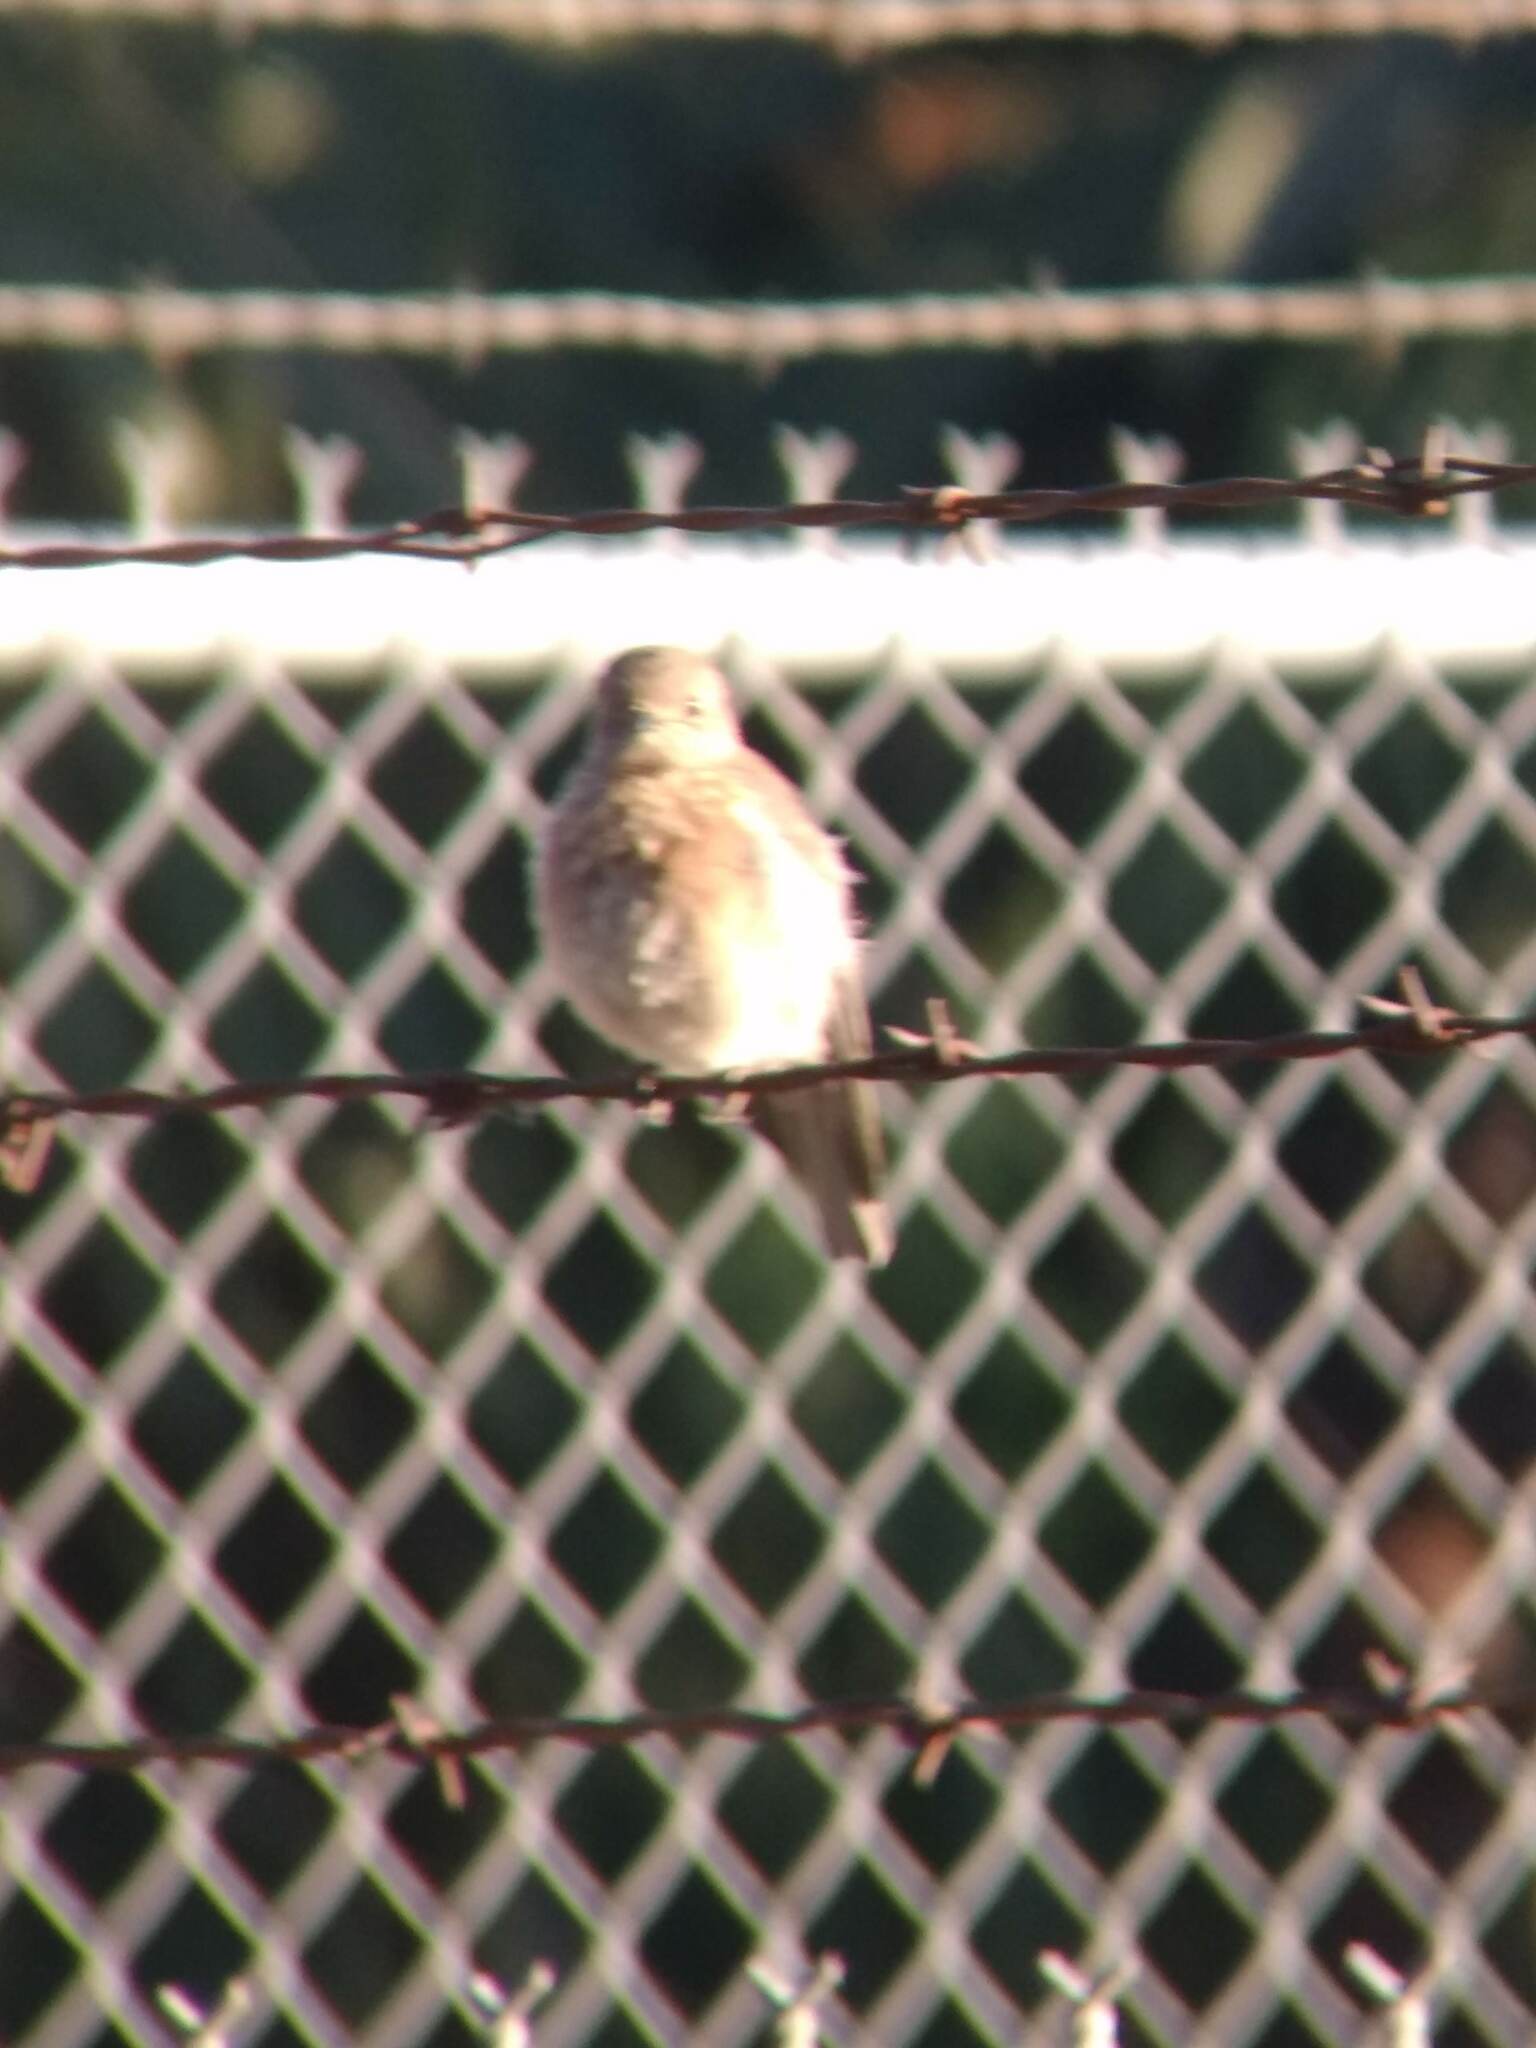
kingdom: Animalia
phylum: Chordata
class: Aves
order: Passeriformes
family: Turdidae
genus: Sialia
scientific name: Sialia mexicana
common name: Western bluebird
